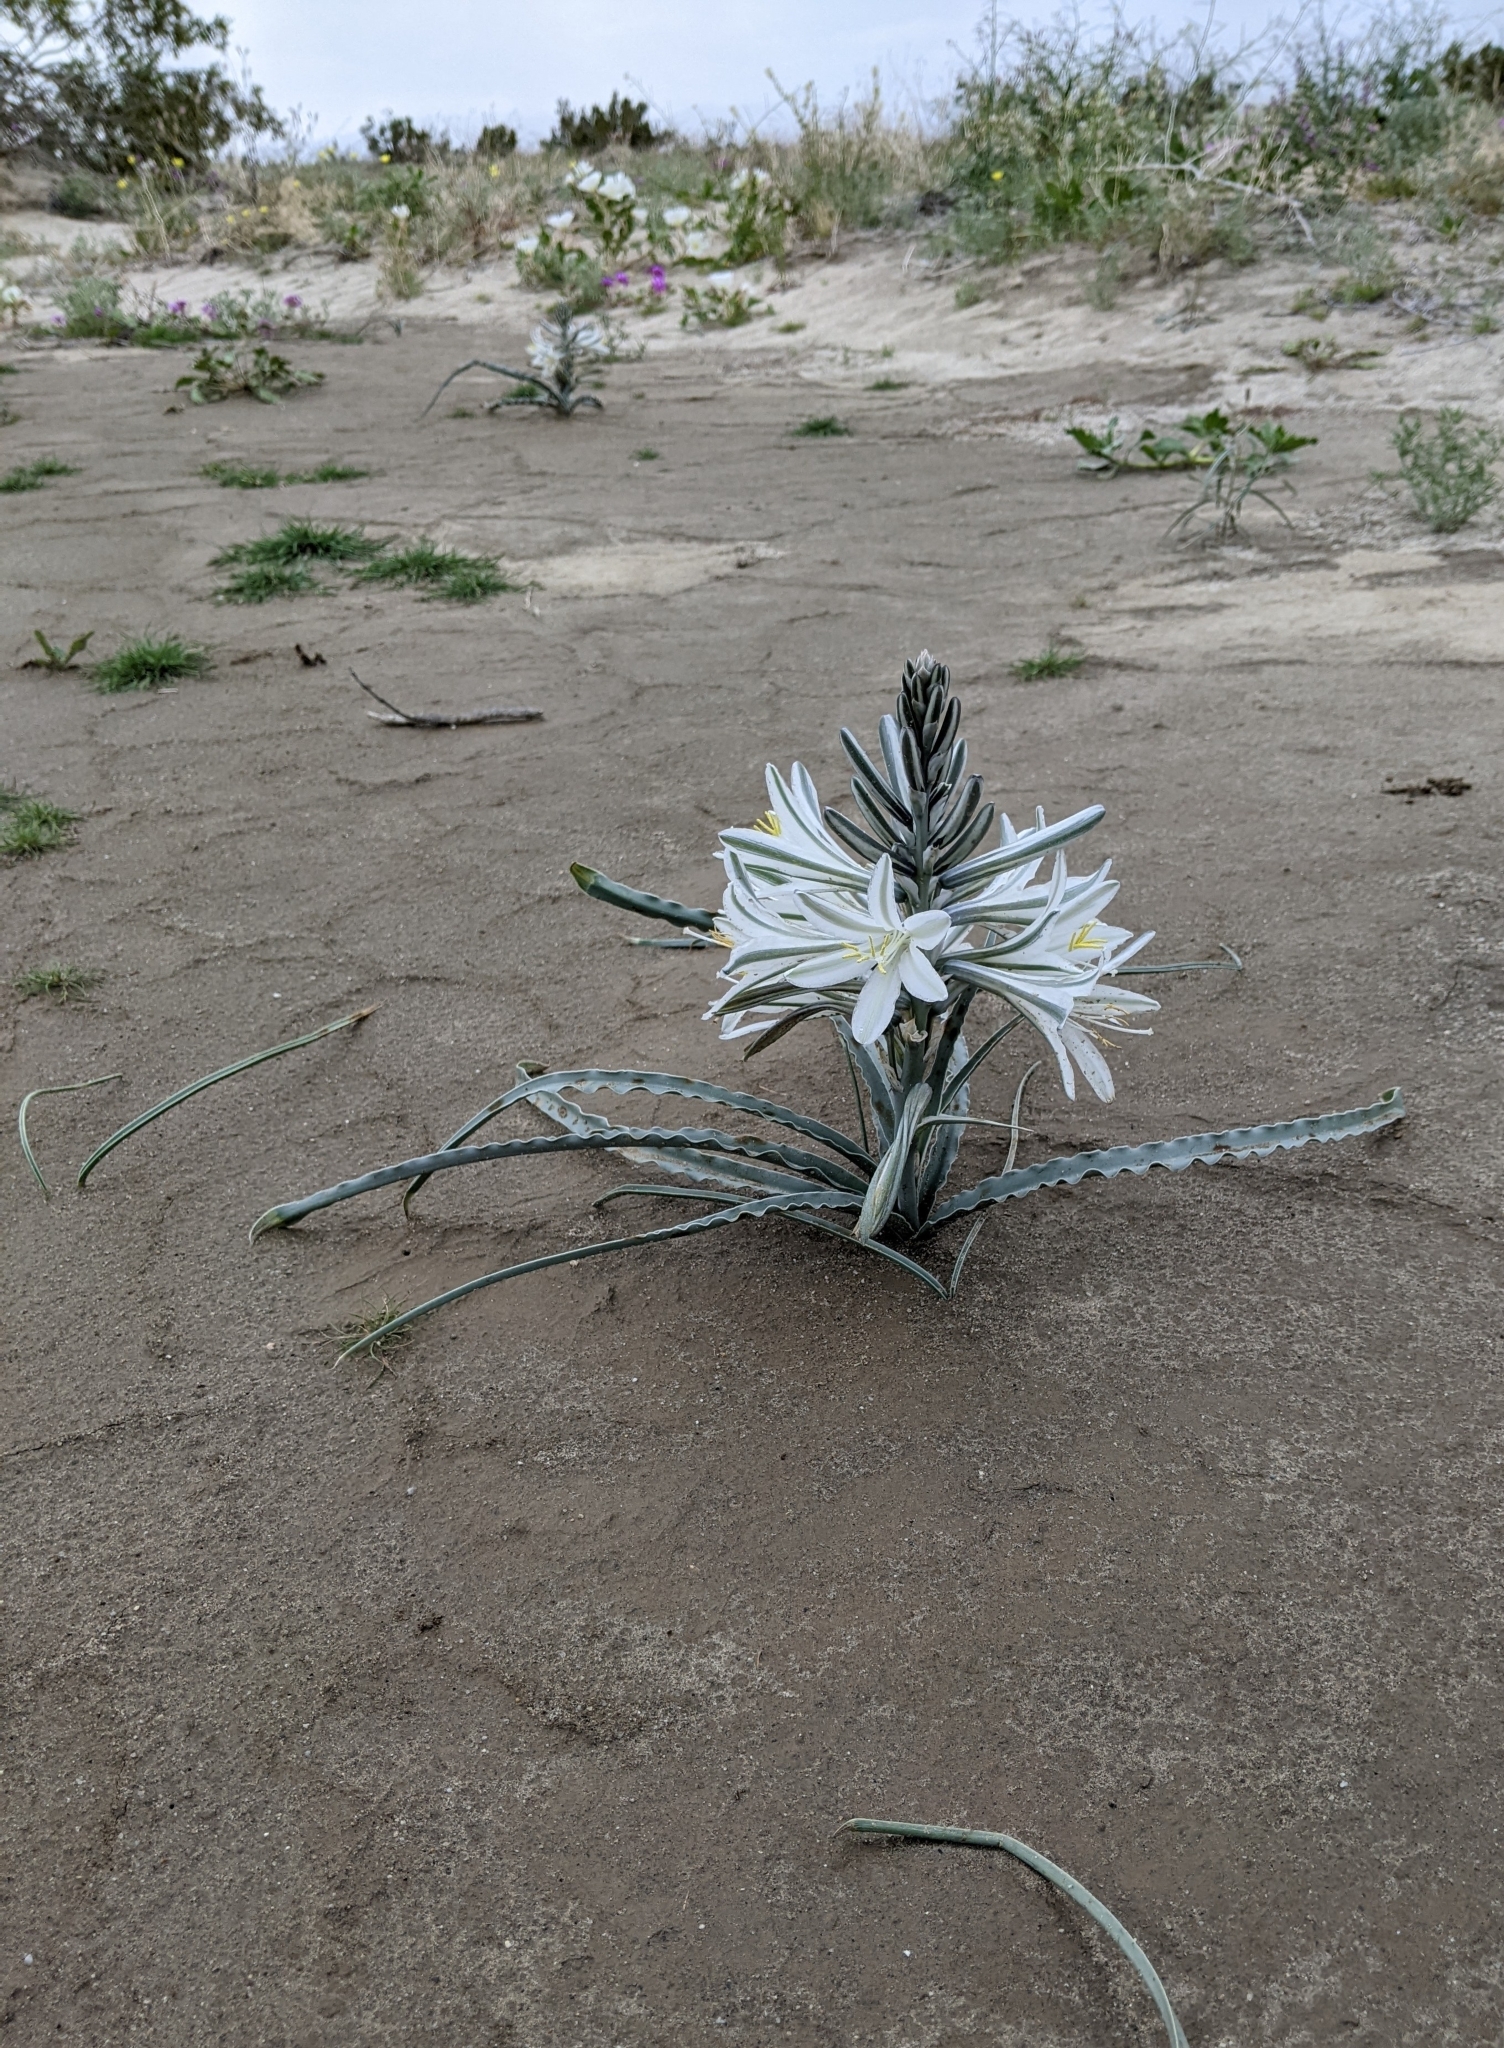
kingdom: Plantae
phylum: Tracheophyta
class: Liliopsida
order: Asparagales
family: Asparagaceae
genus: Hesperocallis
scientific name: Hesperocallis undulata
